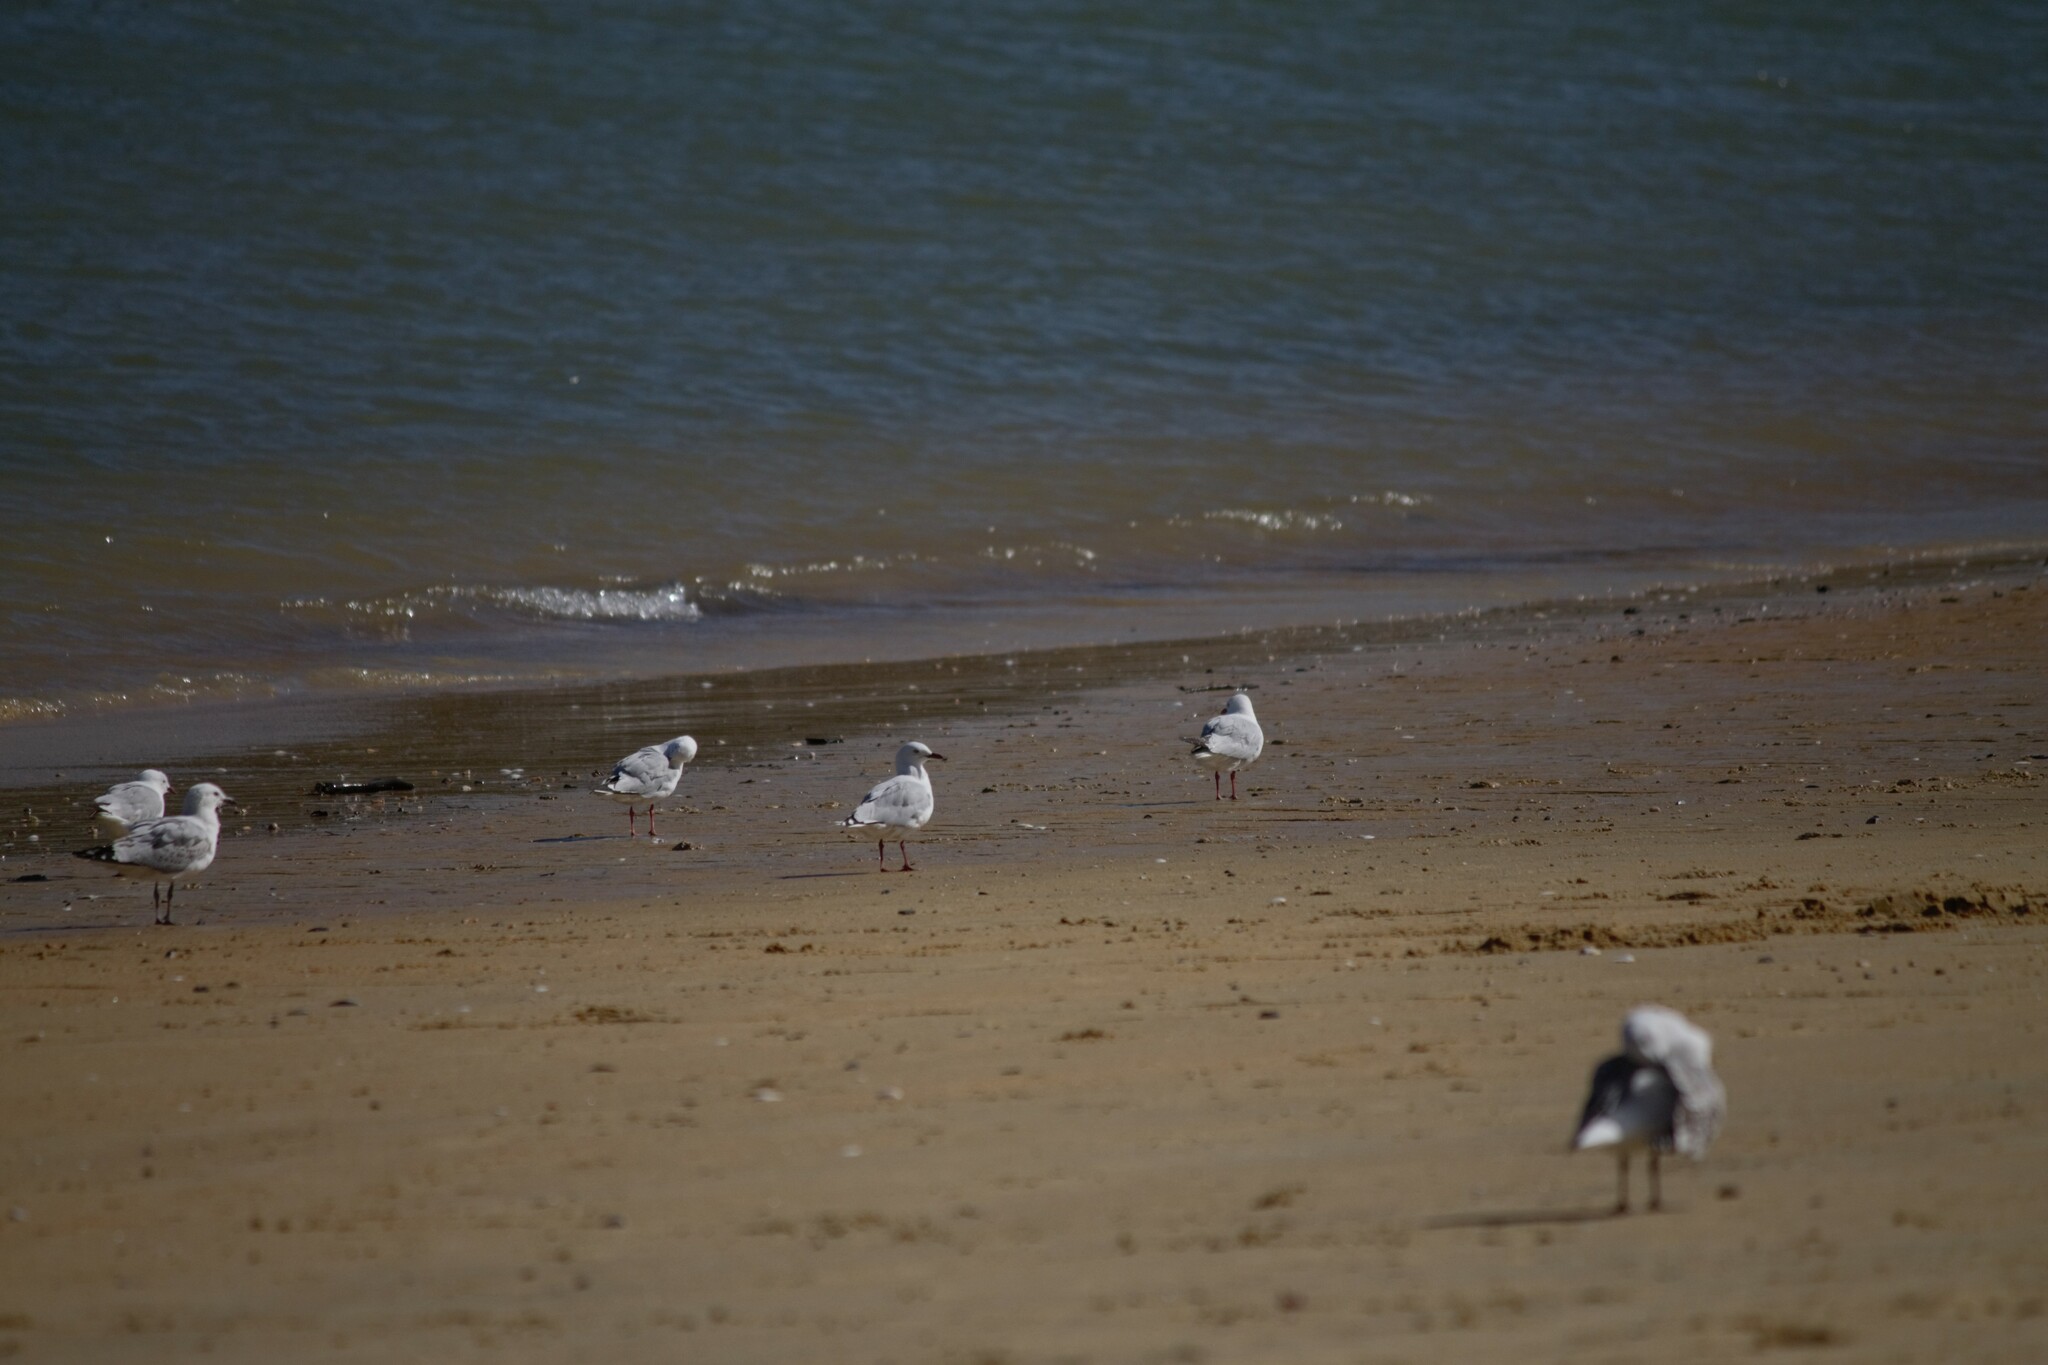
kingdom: Animalia
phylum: Chordata
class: Aves
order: Charadriiformes
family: Laridae
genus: Chroicocephalus
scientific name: Chroicocephalus novaehollandiae
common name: Silver gull
